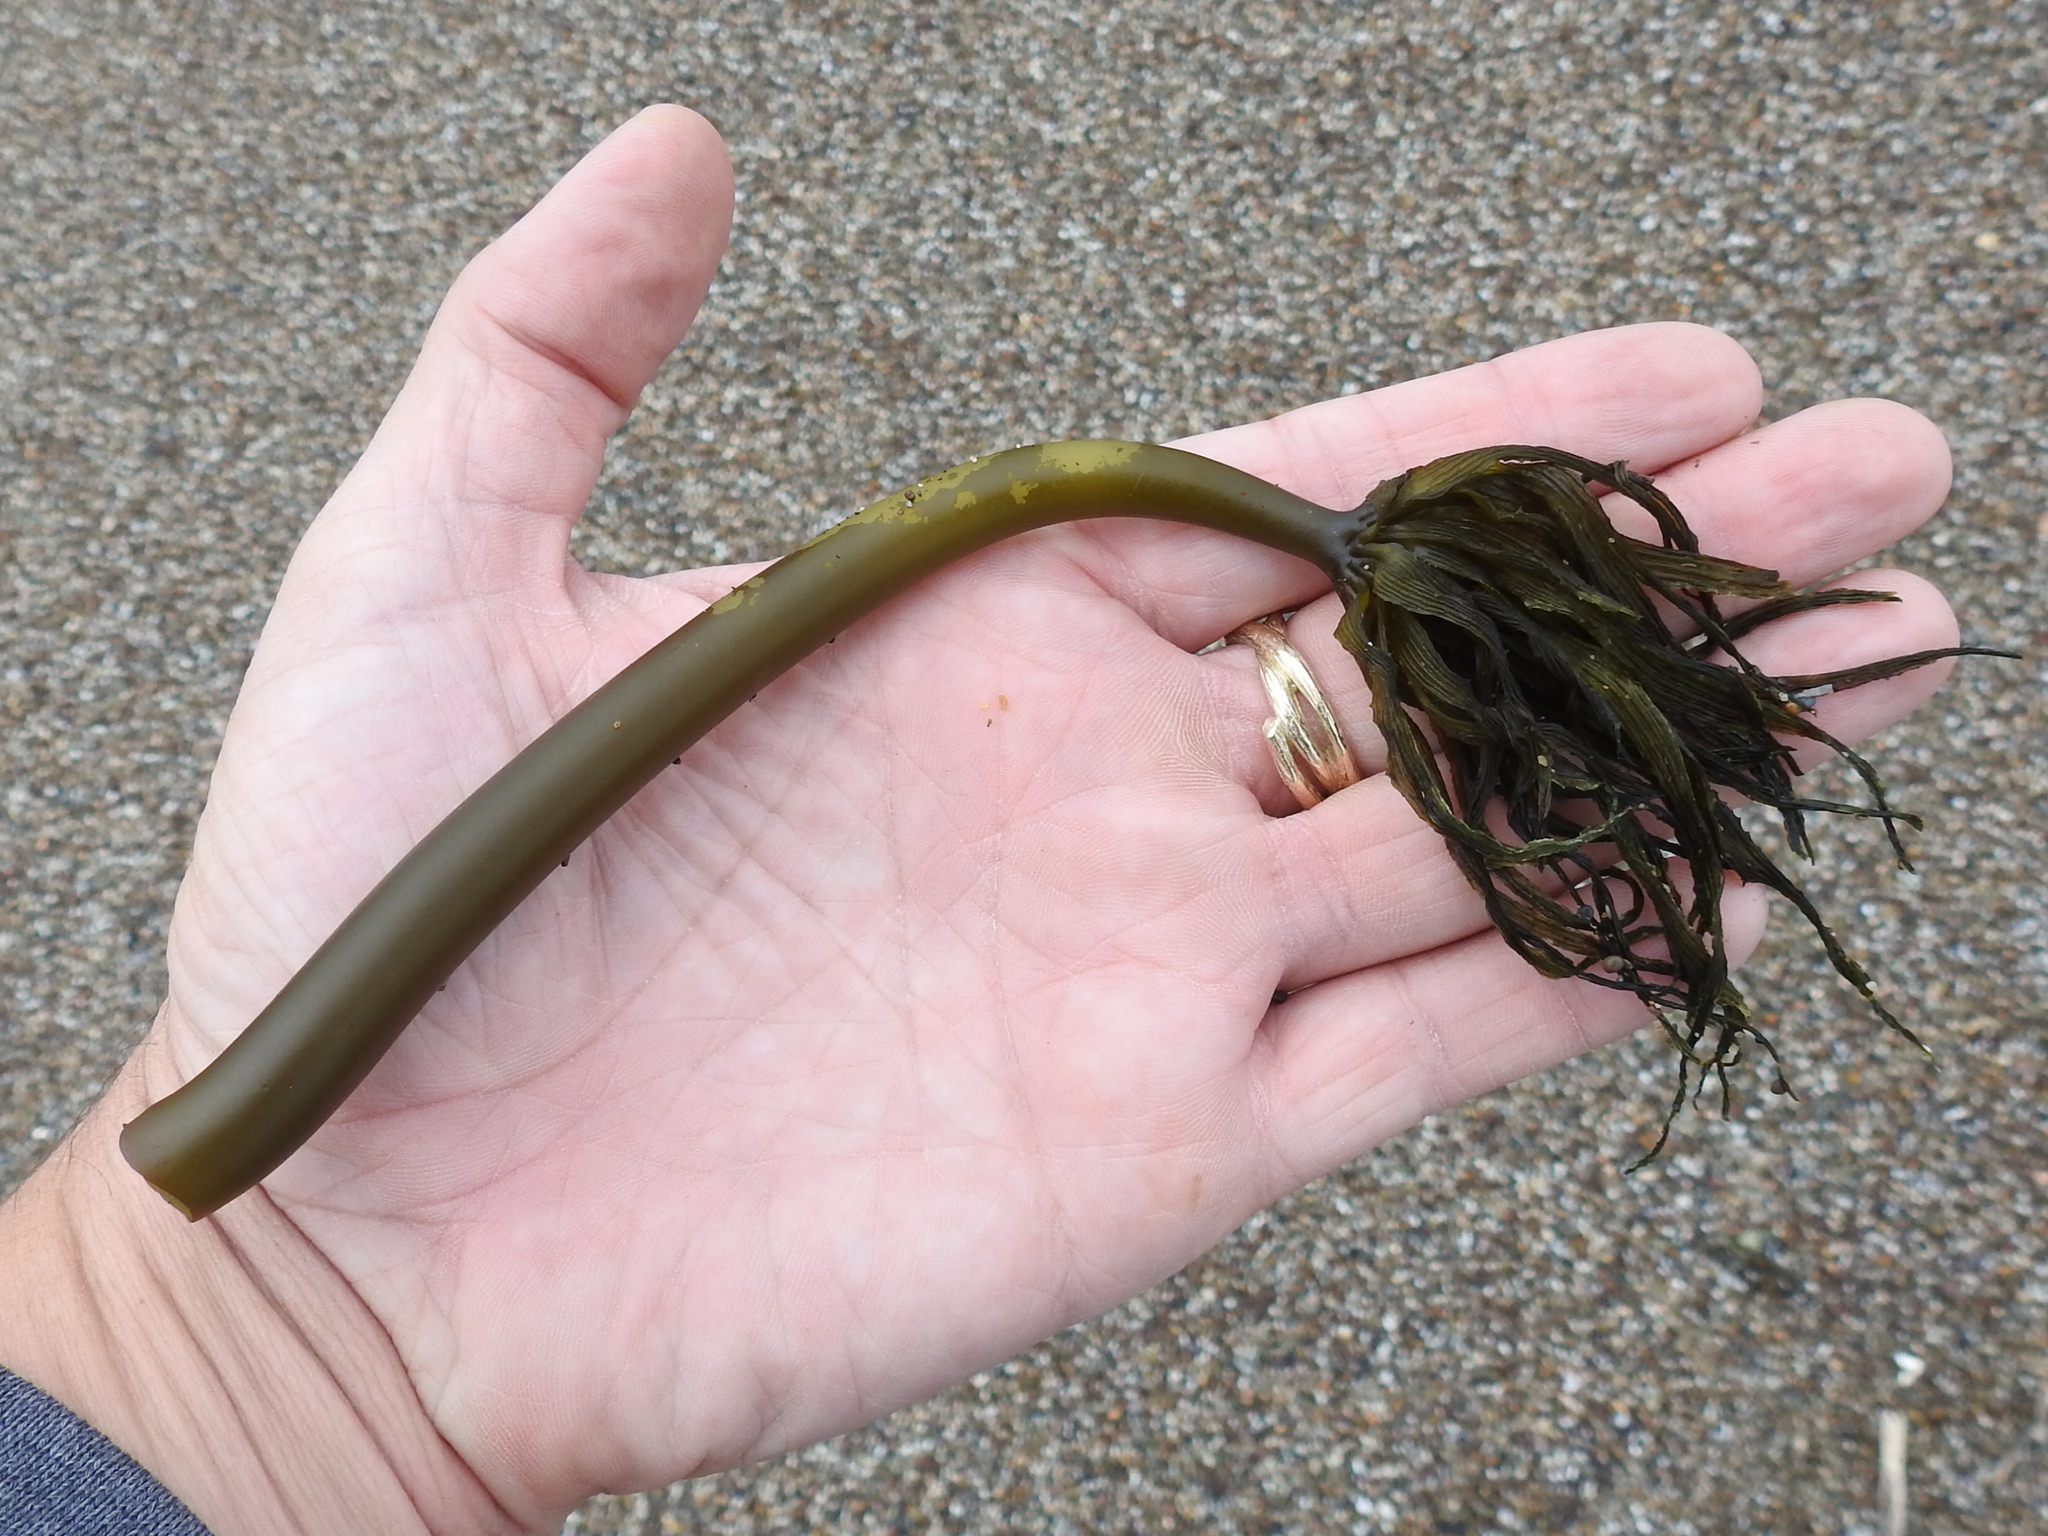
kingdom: Chromista
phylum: Ochrophyta
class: Phaeophyceae
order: Laminariales
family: Laminariaceae
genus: Postelsia
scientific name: Postelsia palmiformis
